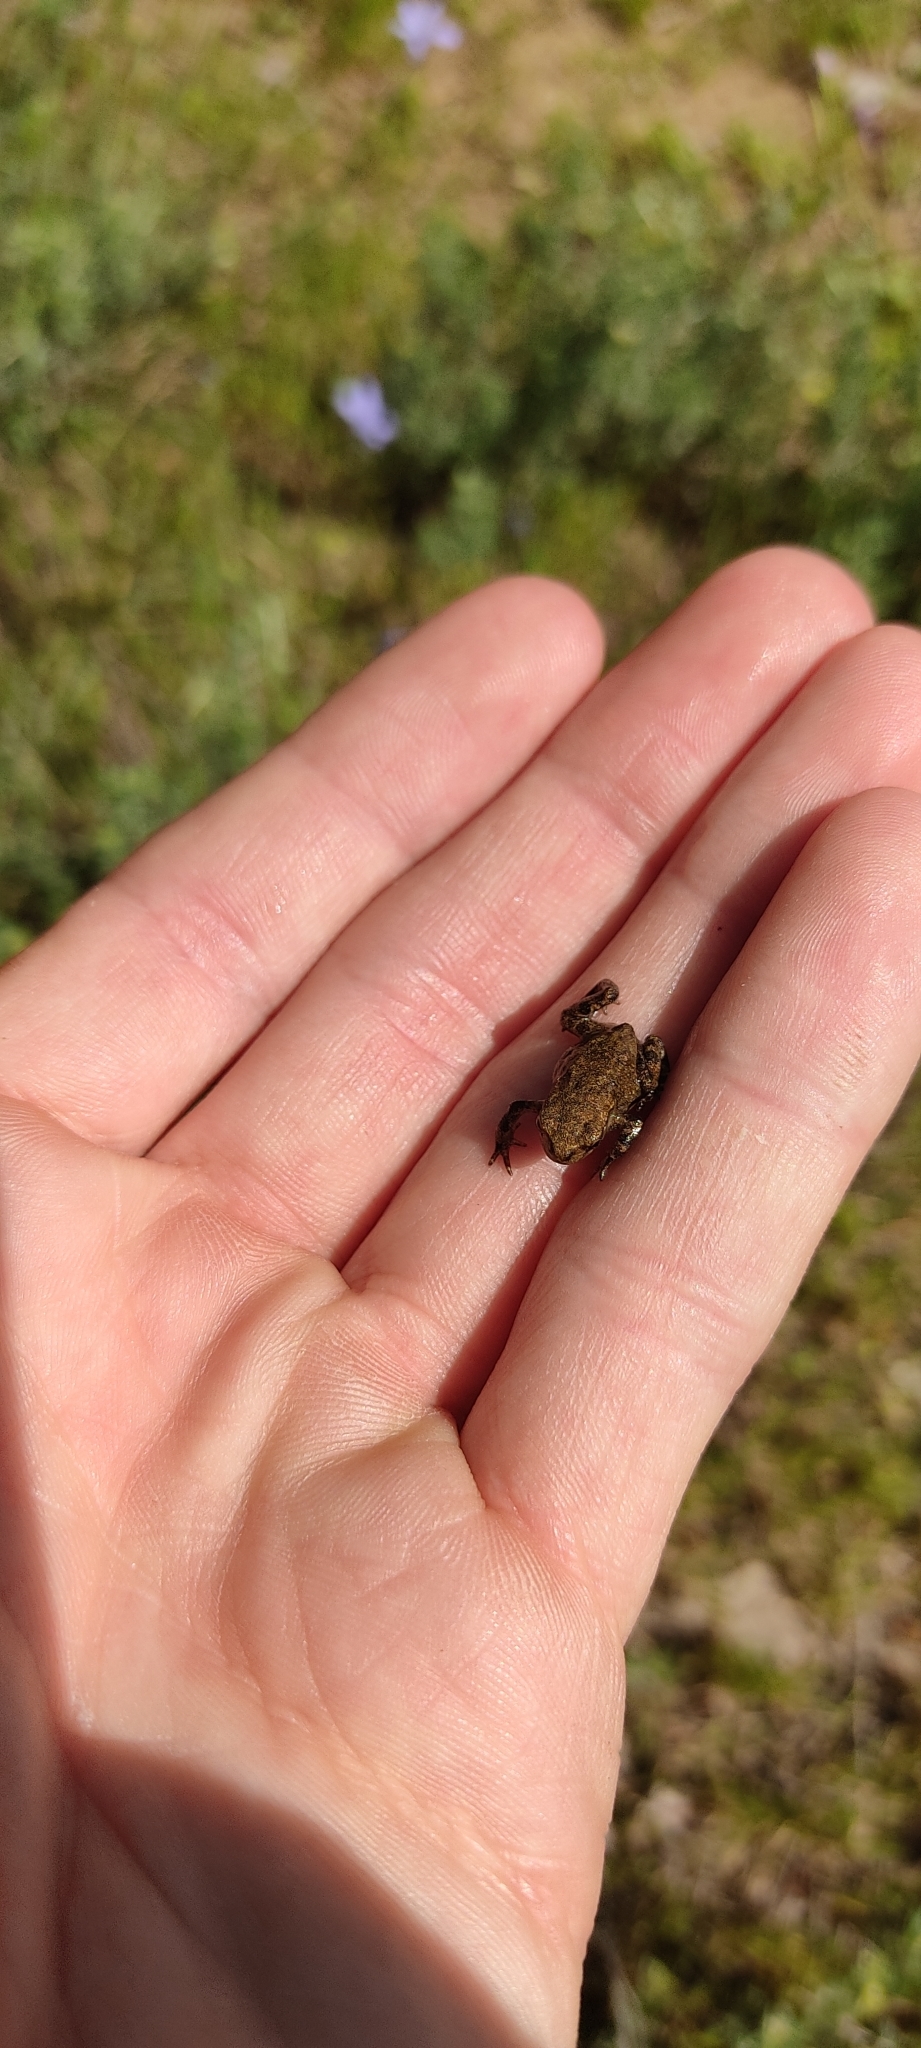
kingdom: Animalia
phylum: Chordata
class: Amphibia
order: Anura
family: Bufonidae
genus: Bufo
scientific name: Bufo spinosus
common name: Western common toad
